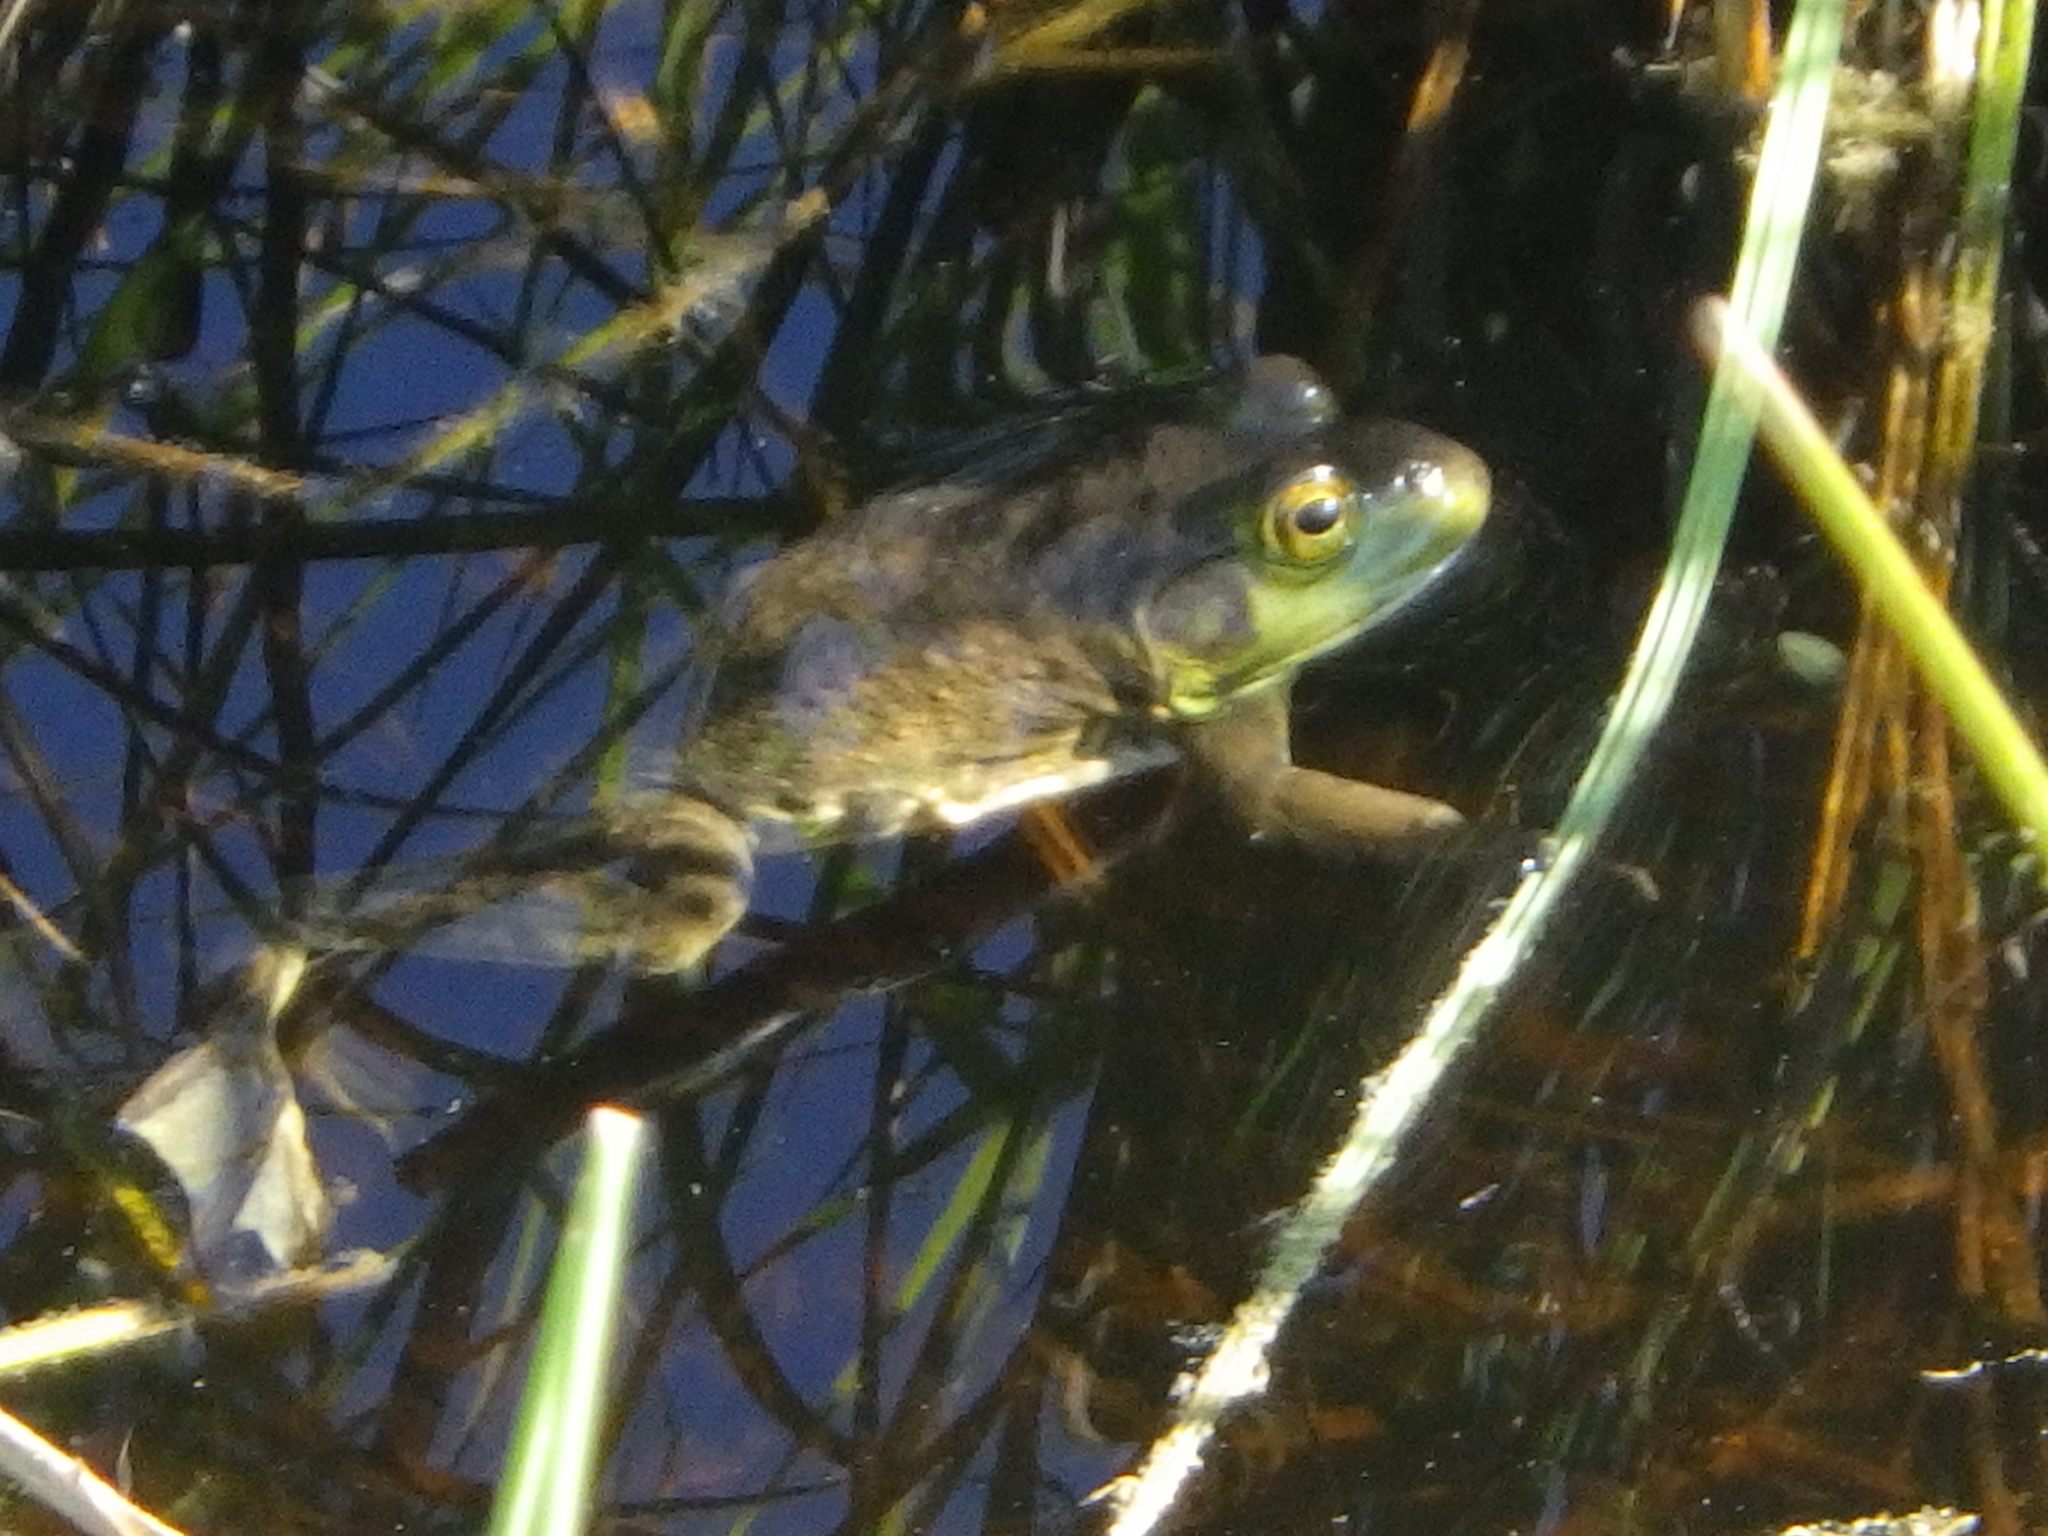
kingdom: Animalia
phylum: Chordata
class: Amphibia
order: Anura
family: Ranidae
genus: Lithobates
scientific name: Lithobates catesbeianus
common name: American bullfrog
